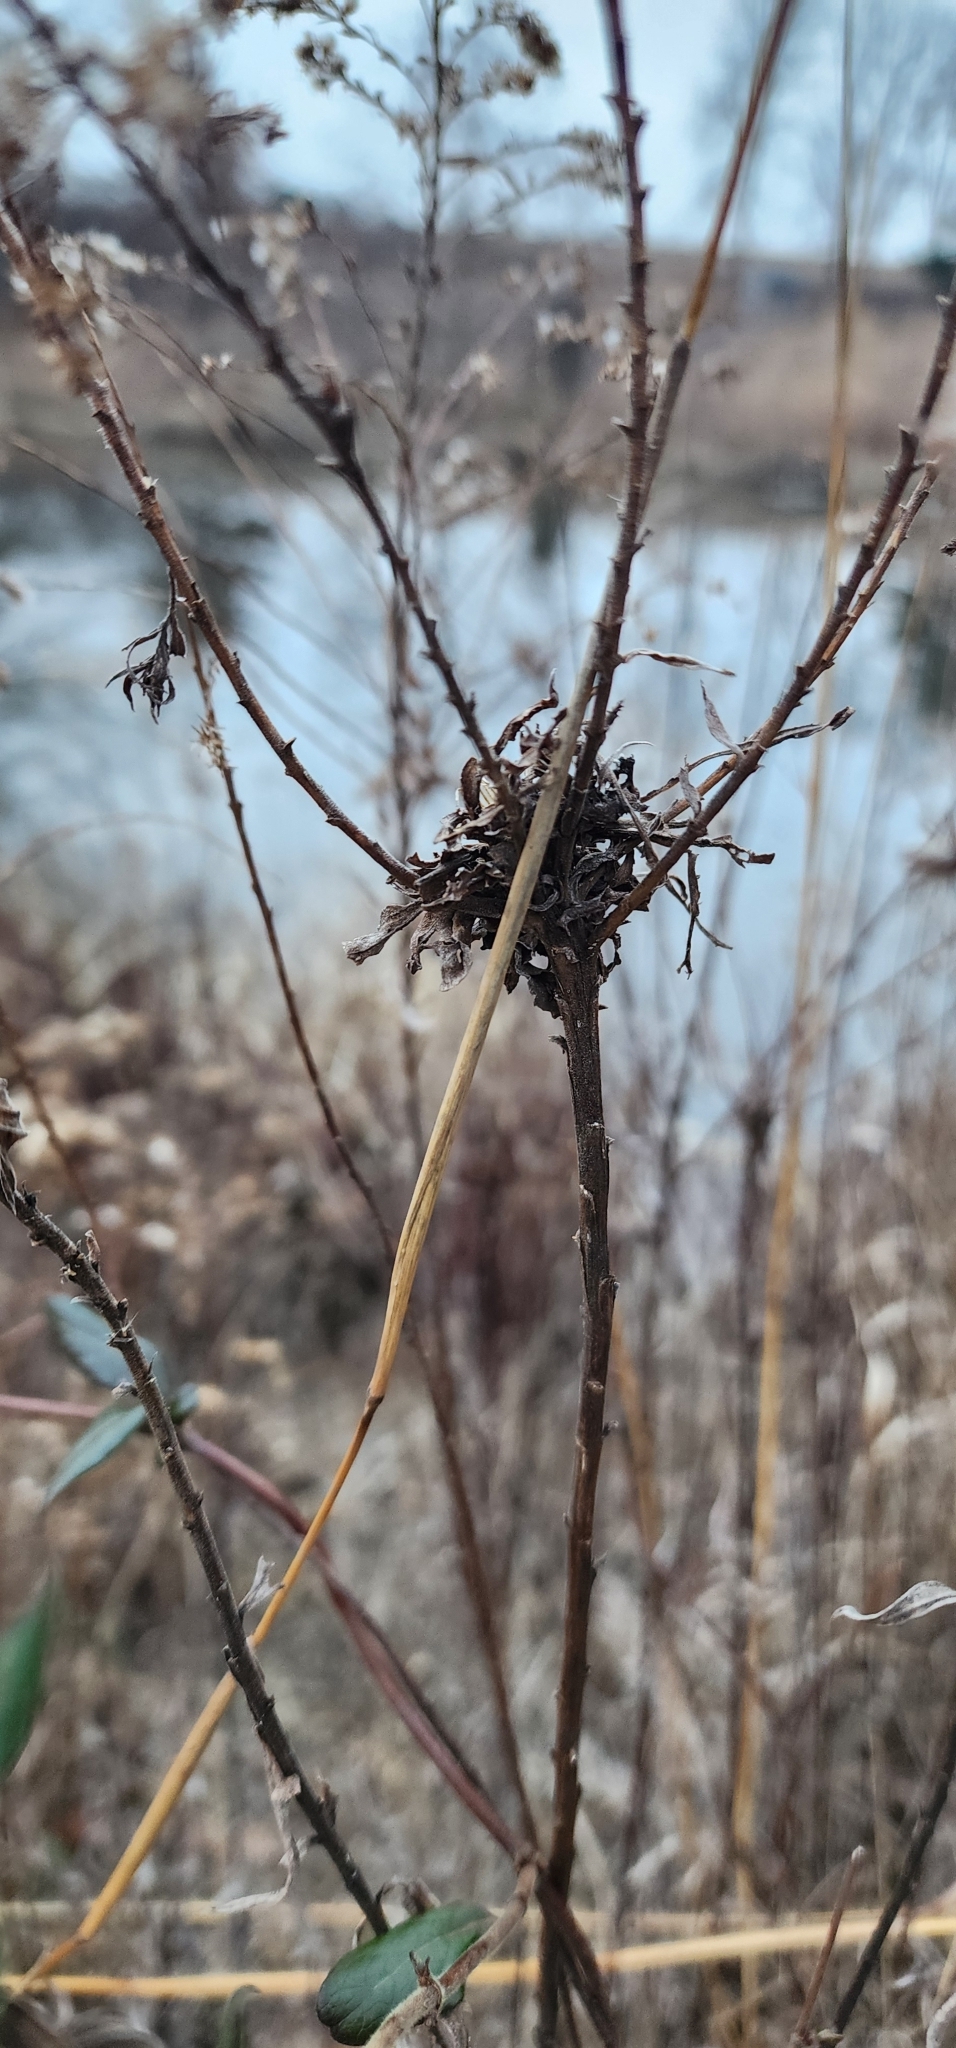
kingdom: Animalia
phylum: Arthropoda
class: Insecta
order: Diptera
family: Cecidomyiidae
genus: Rhopalomyia
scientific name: Rhopalomyia solidaginis
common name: Goldenrod bunch gall midge
